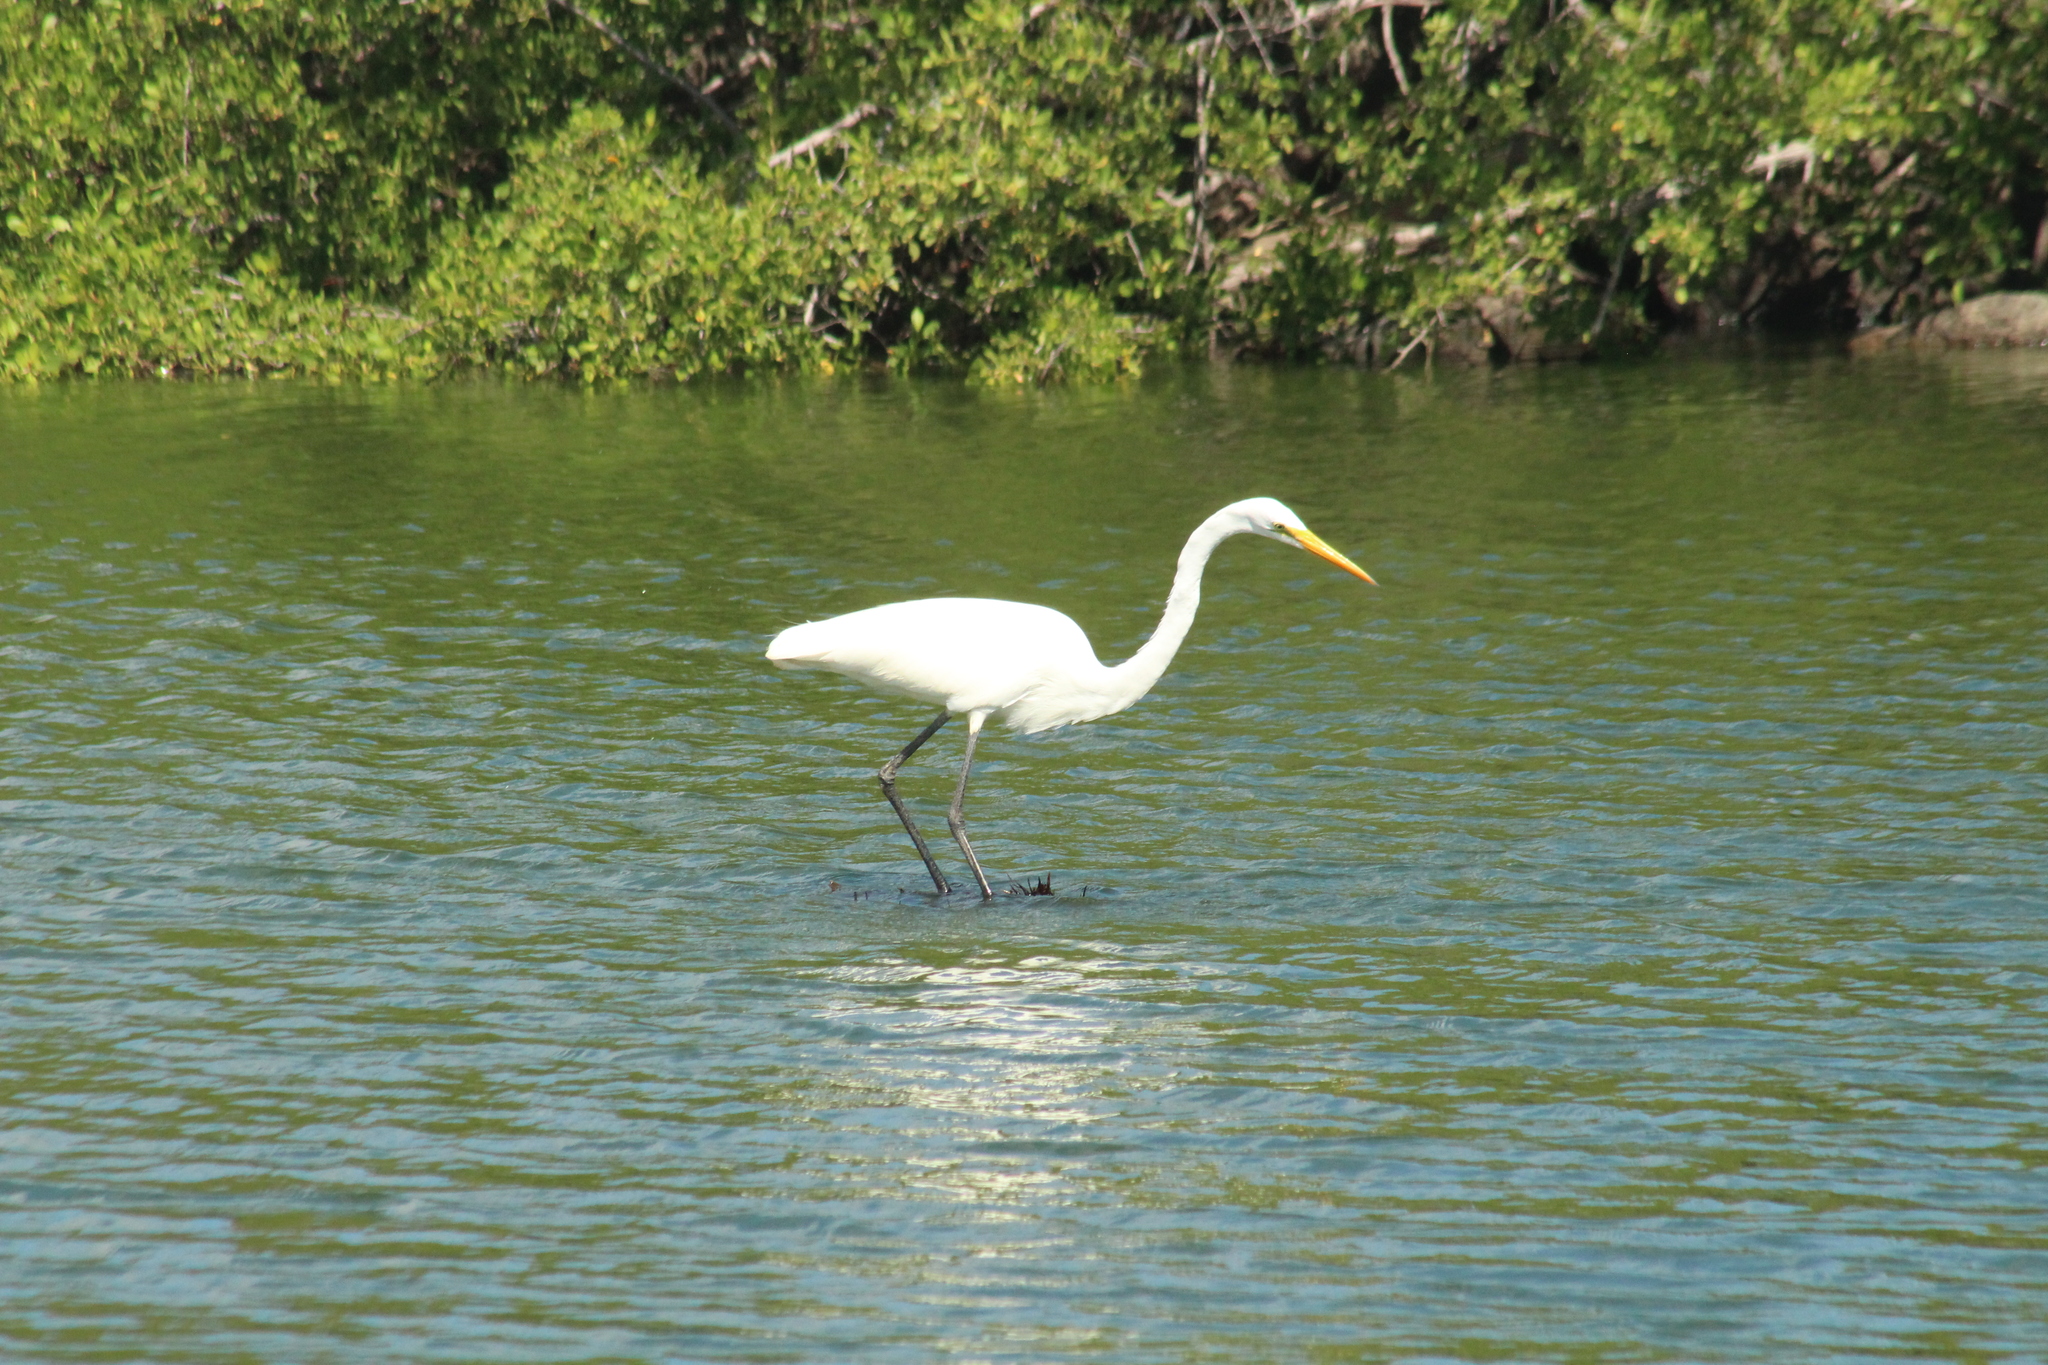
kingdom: Animalia
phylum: Chordata
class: Aves
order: Pelecaniformes
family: Ardeidae
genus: Ardea
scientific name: Ardea alba
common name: Great egret
